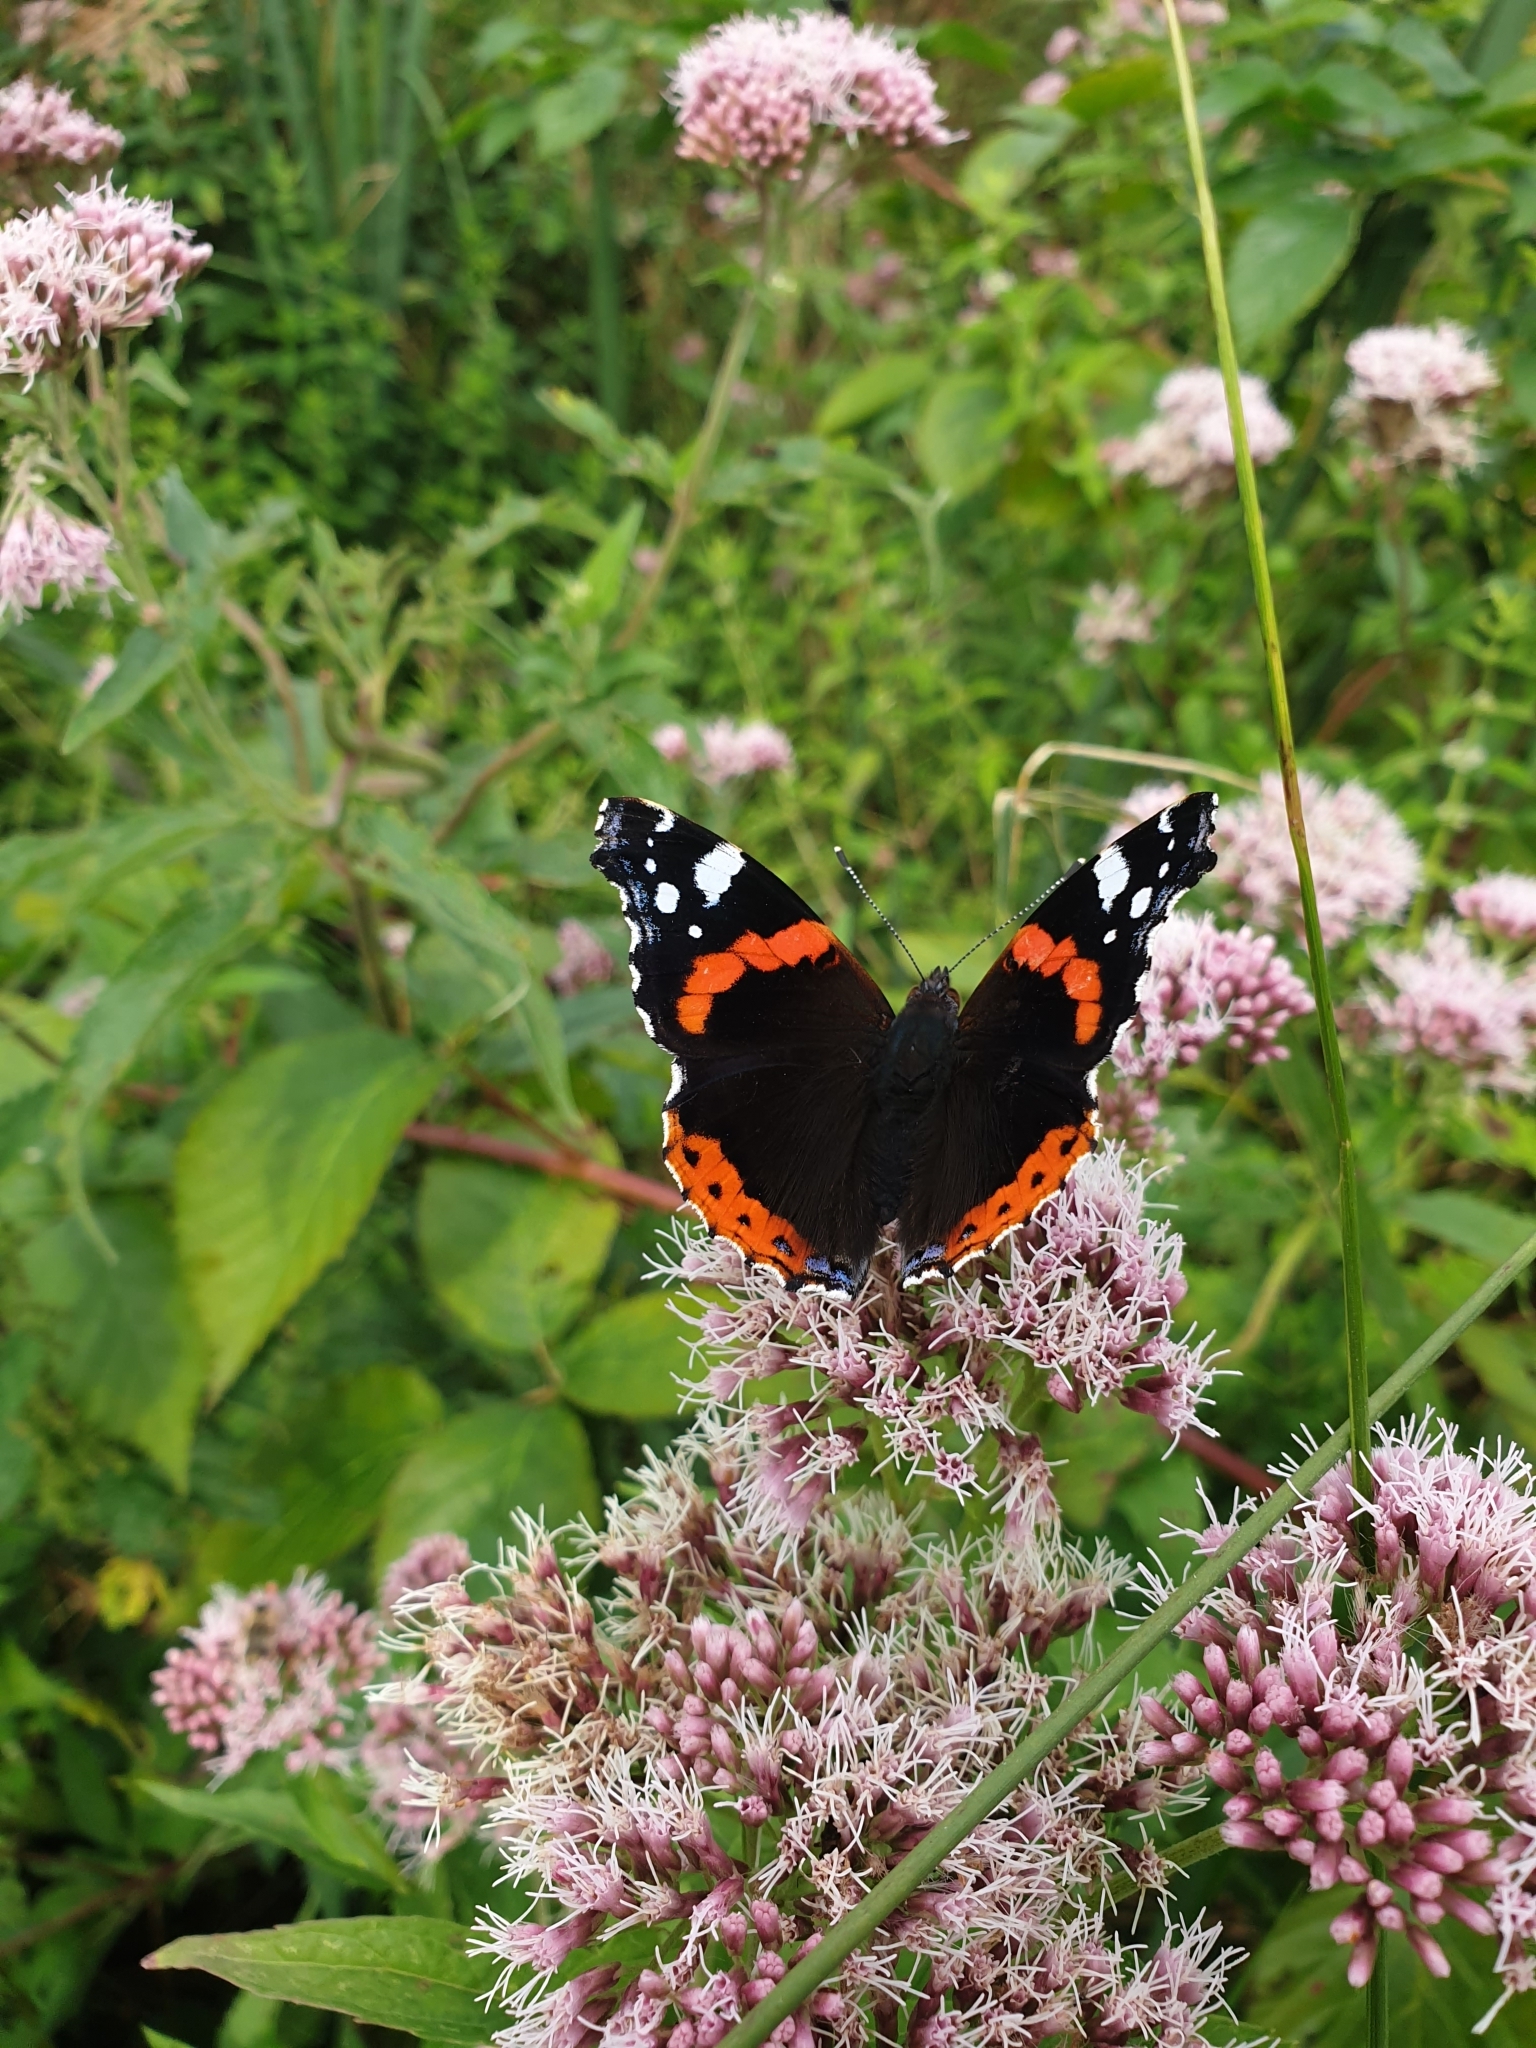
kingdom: Animalia
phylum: Arthropoda
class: Insecta
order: Lepidoptera
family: Nymphalidae
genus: Vanessa
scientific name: Vanessa atalanta
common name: Red admiral
